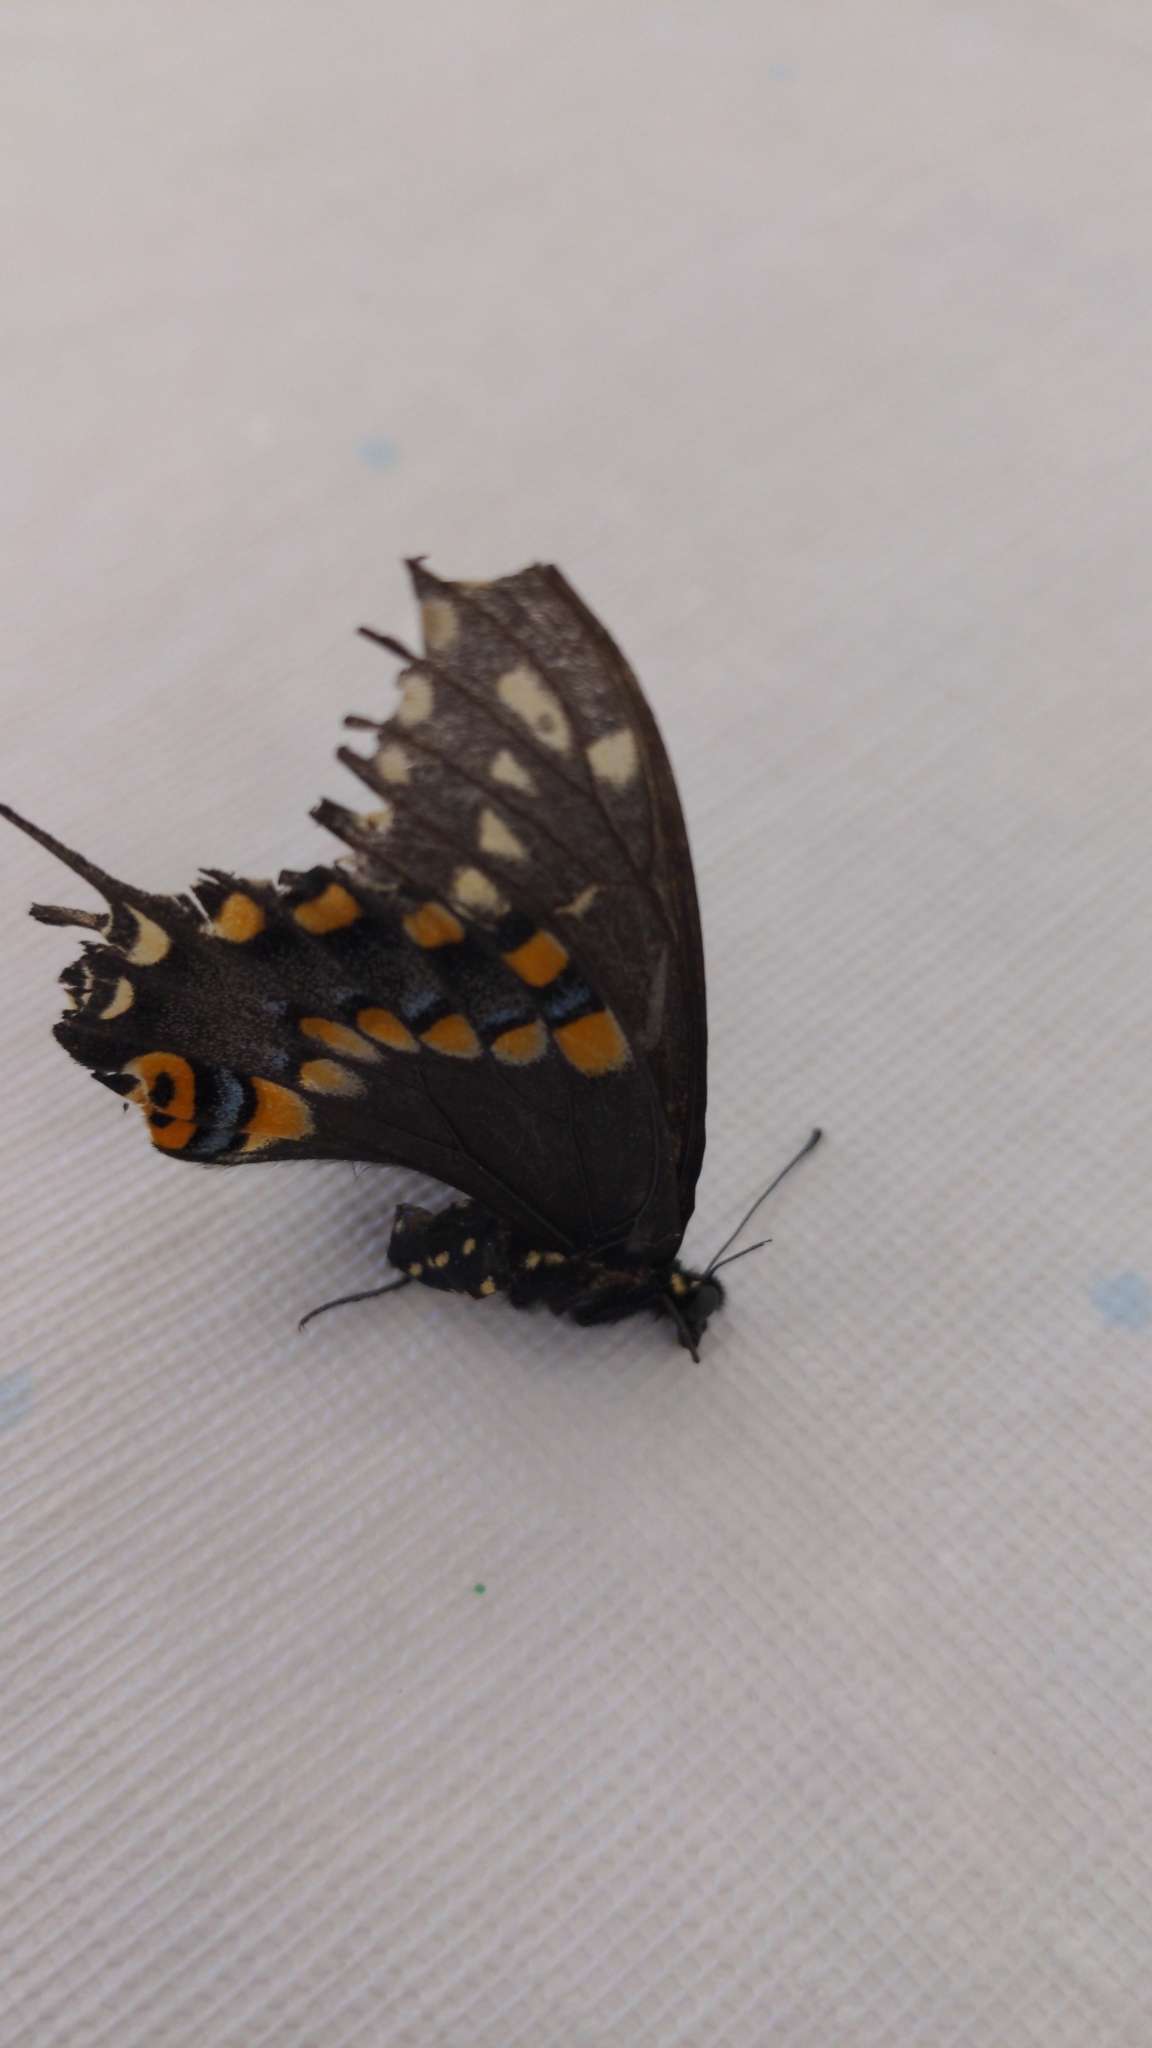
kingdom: Animalia
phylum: Arthropoda
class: Insecta
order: Lepidoptera
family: Papilionidae
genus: Papilio
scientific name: Papilio polyxenes
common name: Black swallowtail
